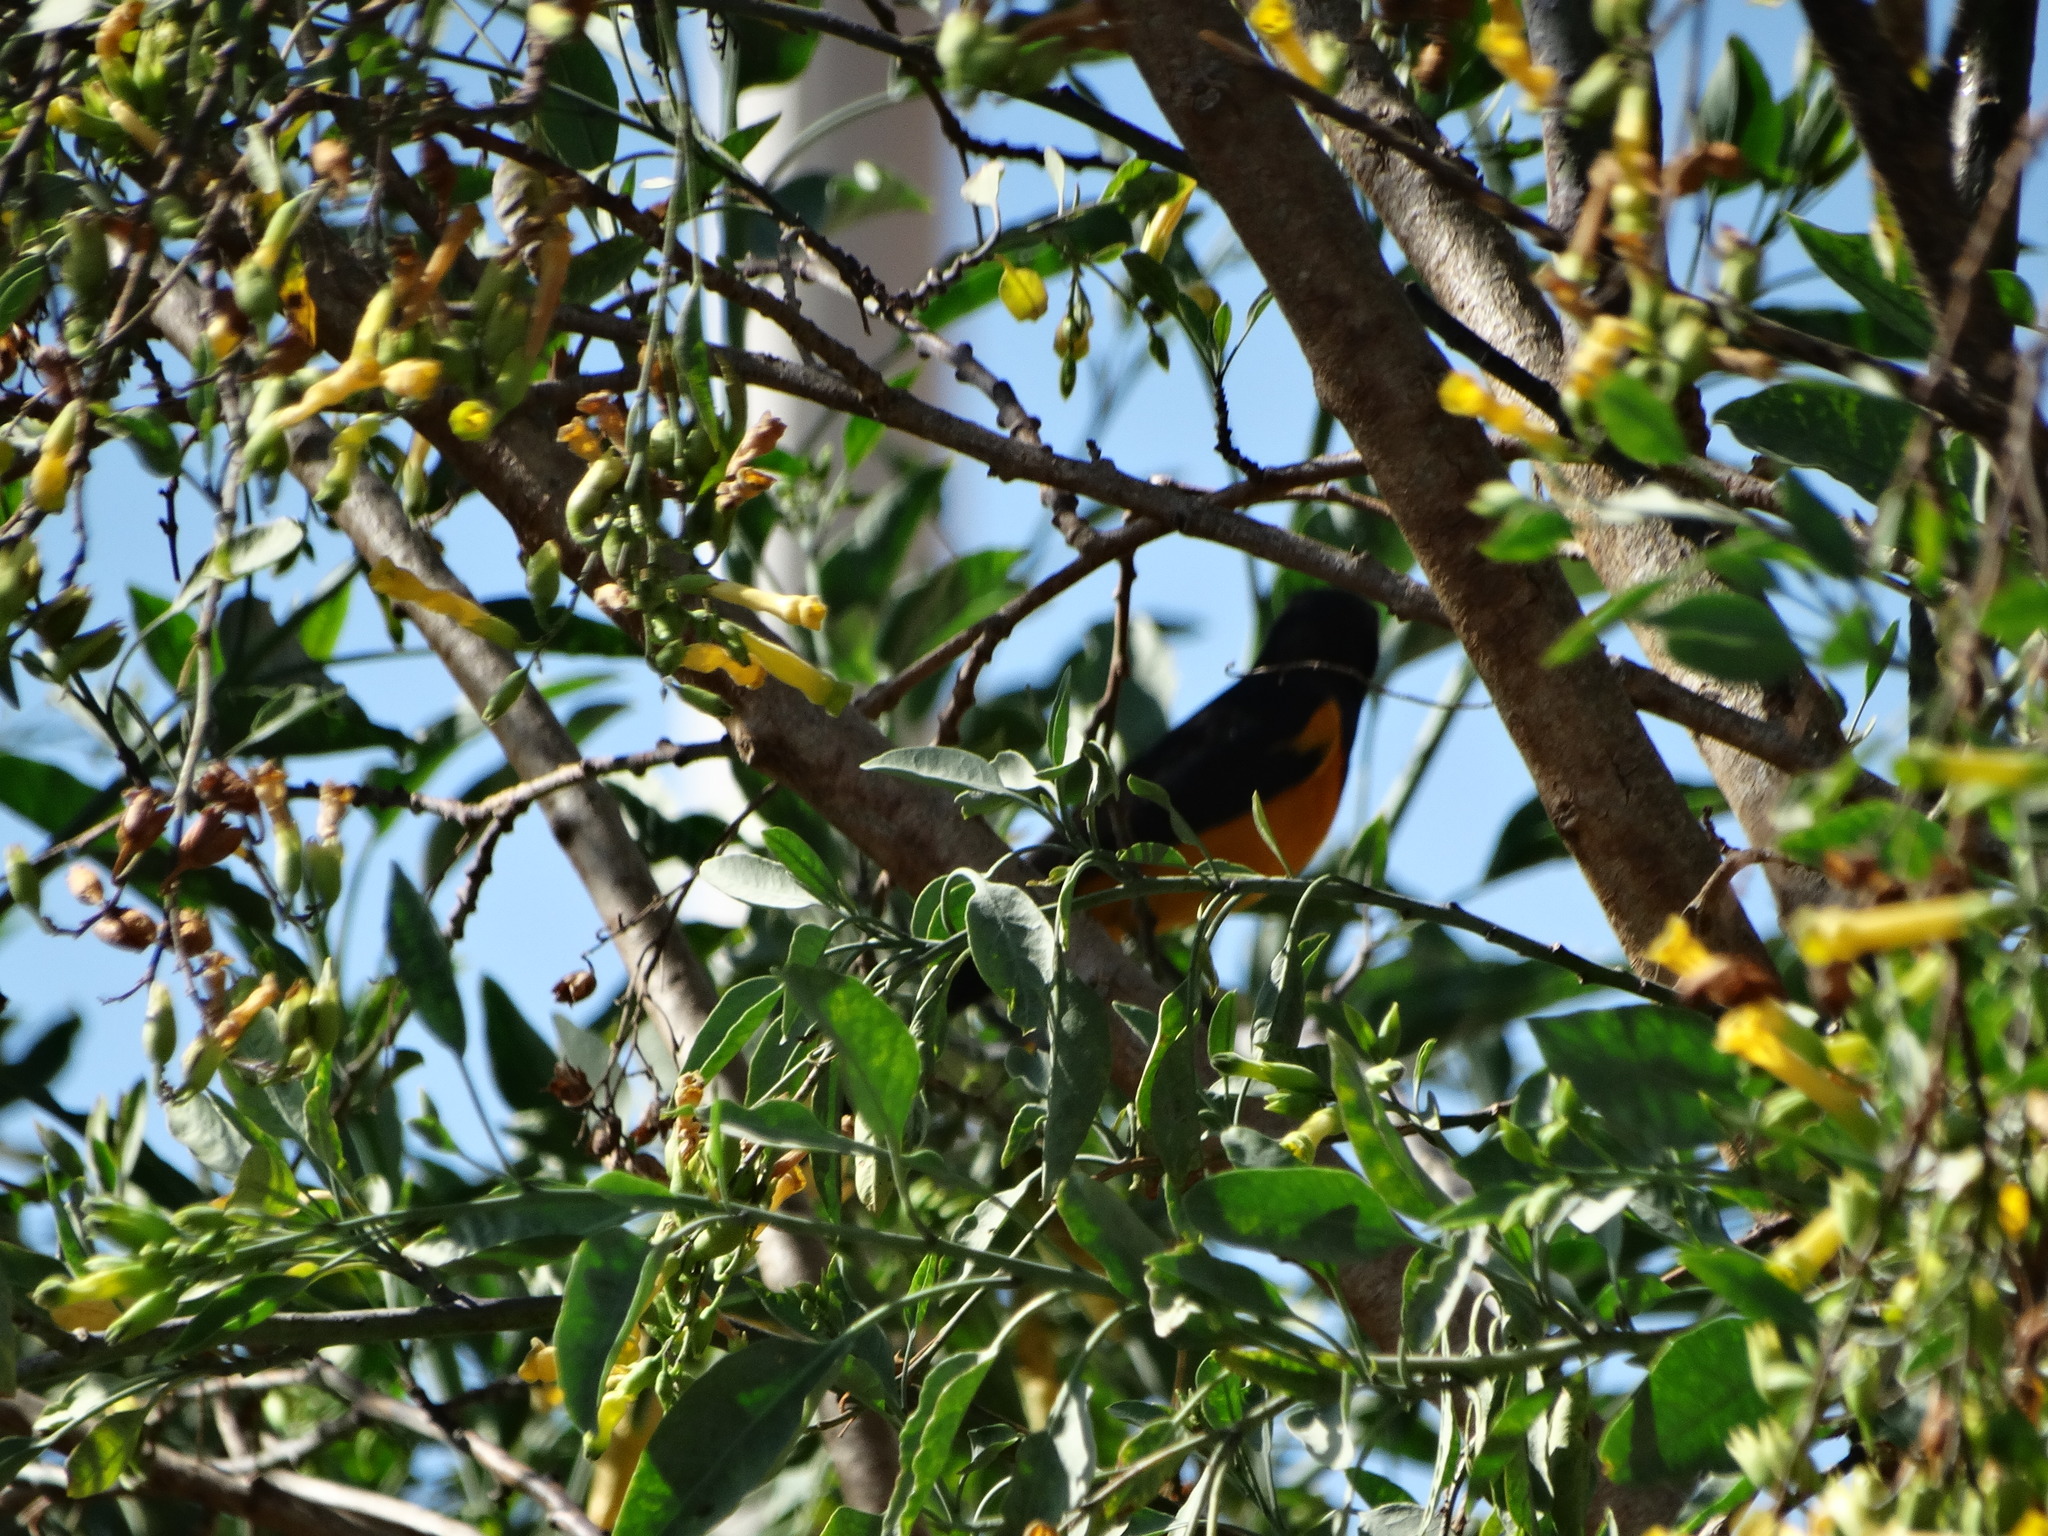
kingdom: Animalia
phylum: Chordata
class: Aves
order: Passeriformes
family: Icteridae
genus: Icterus
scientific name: Icterus wagleri
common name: Black-vented oriole
